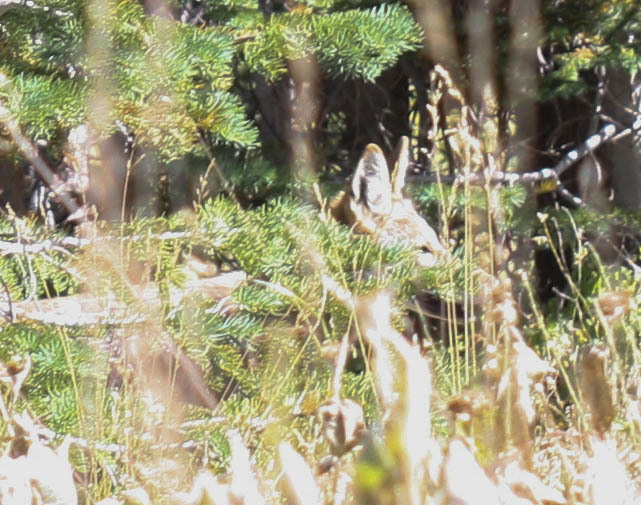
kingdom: Animalia
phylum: Chordata
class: Mammalia
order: Carnivora
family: Canidae
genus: Canis
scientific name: Canis latrans
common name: Coyote
